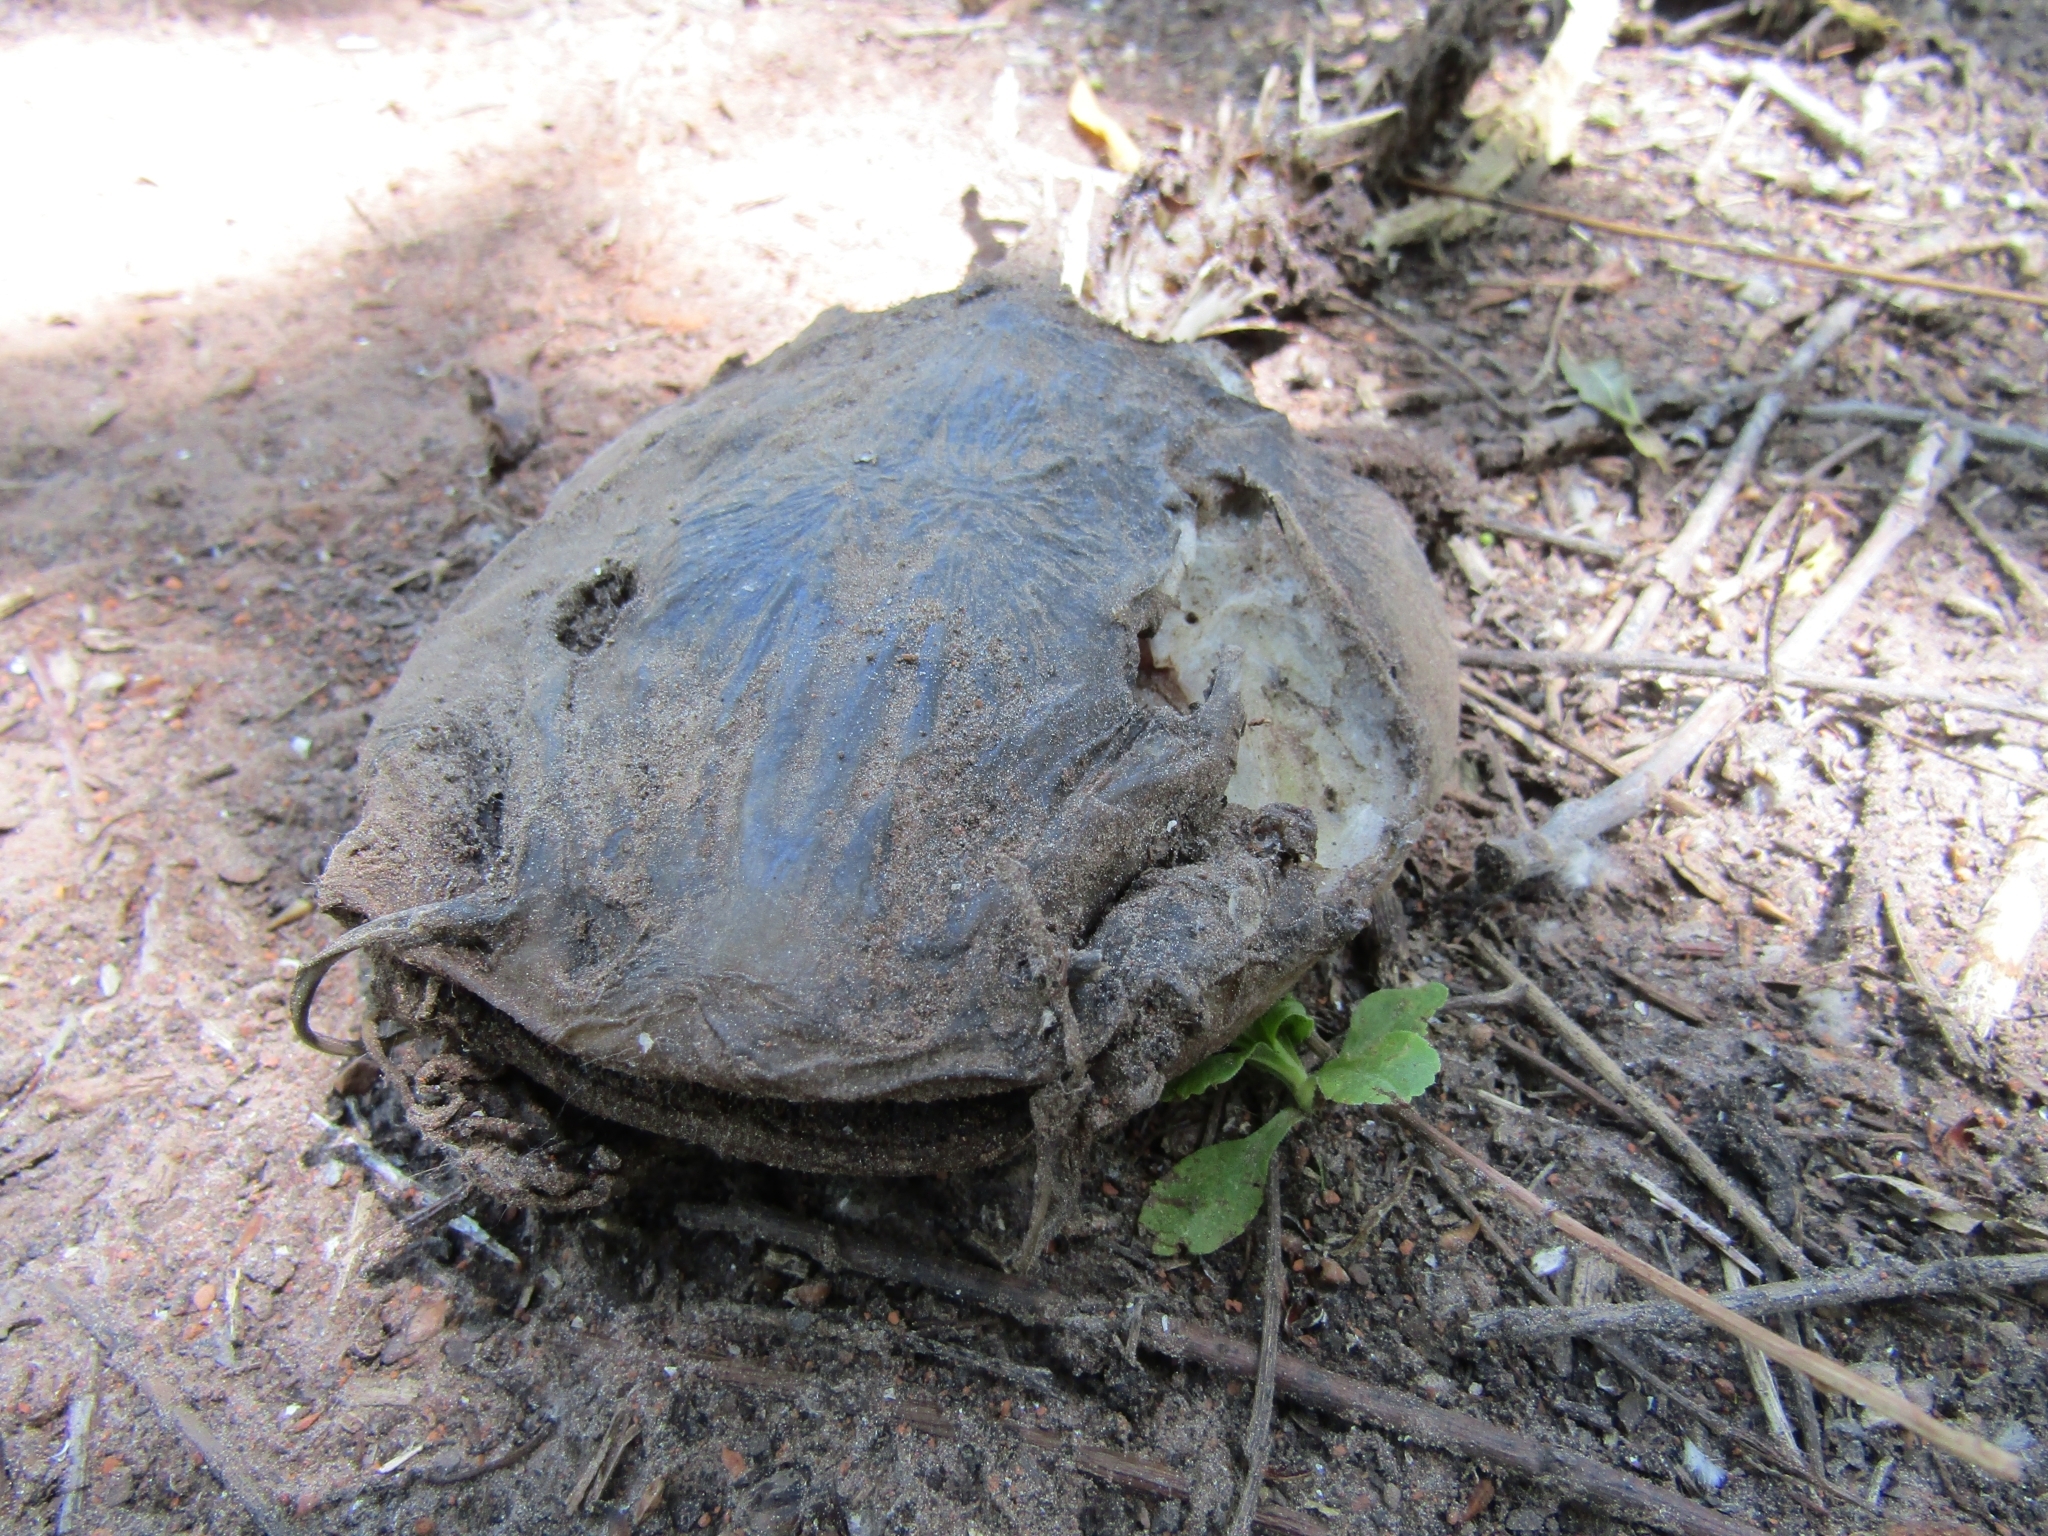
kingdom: Animalia
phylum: Chordata
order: Siluriformes
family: Heptapteridae
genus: Rhamdia
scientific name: Rhamdia quelen
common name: Catfish
